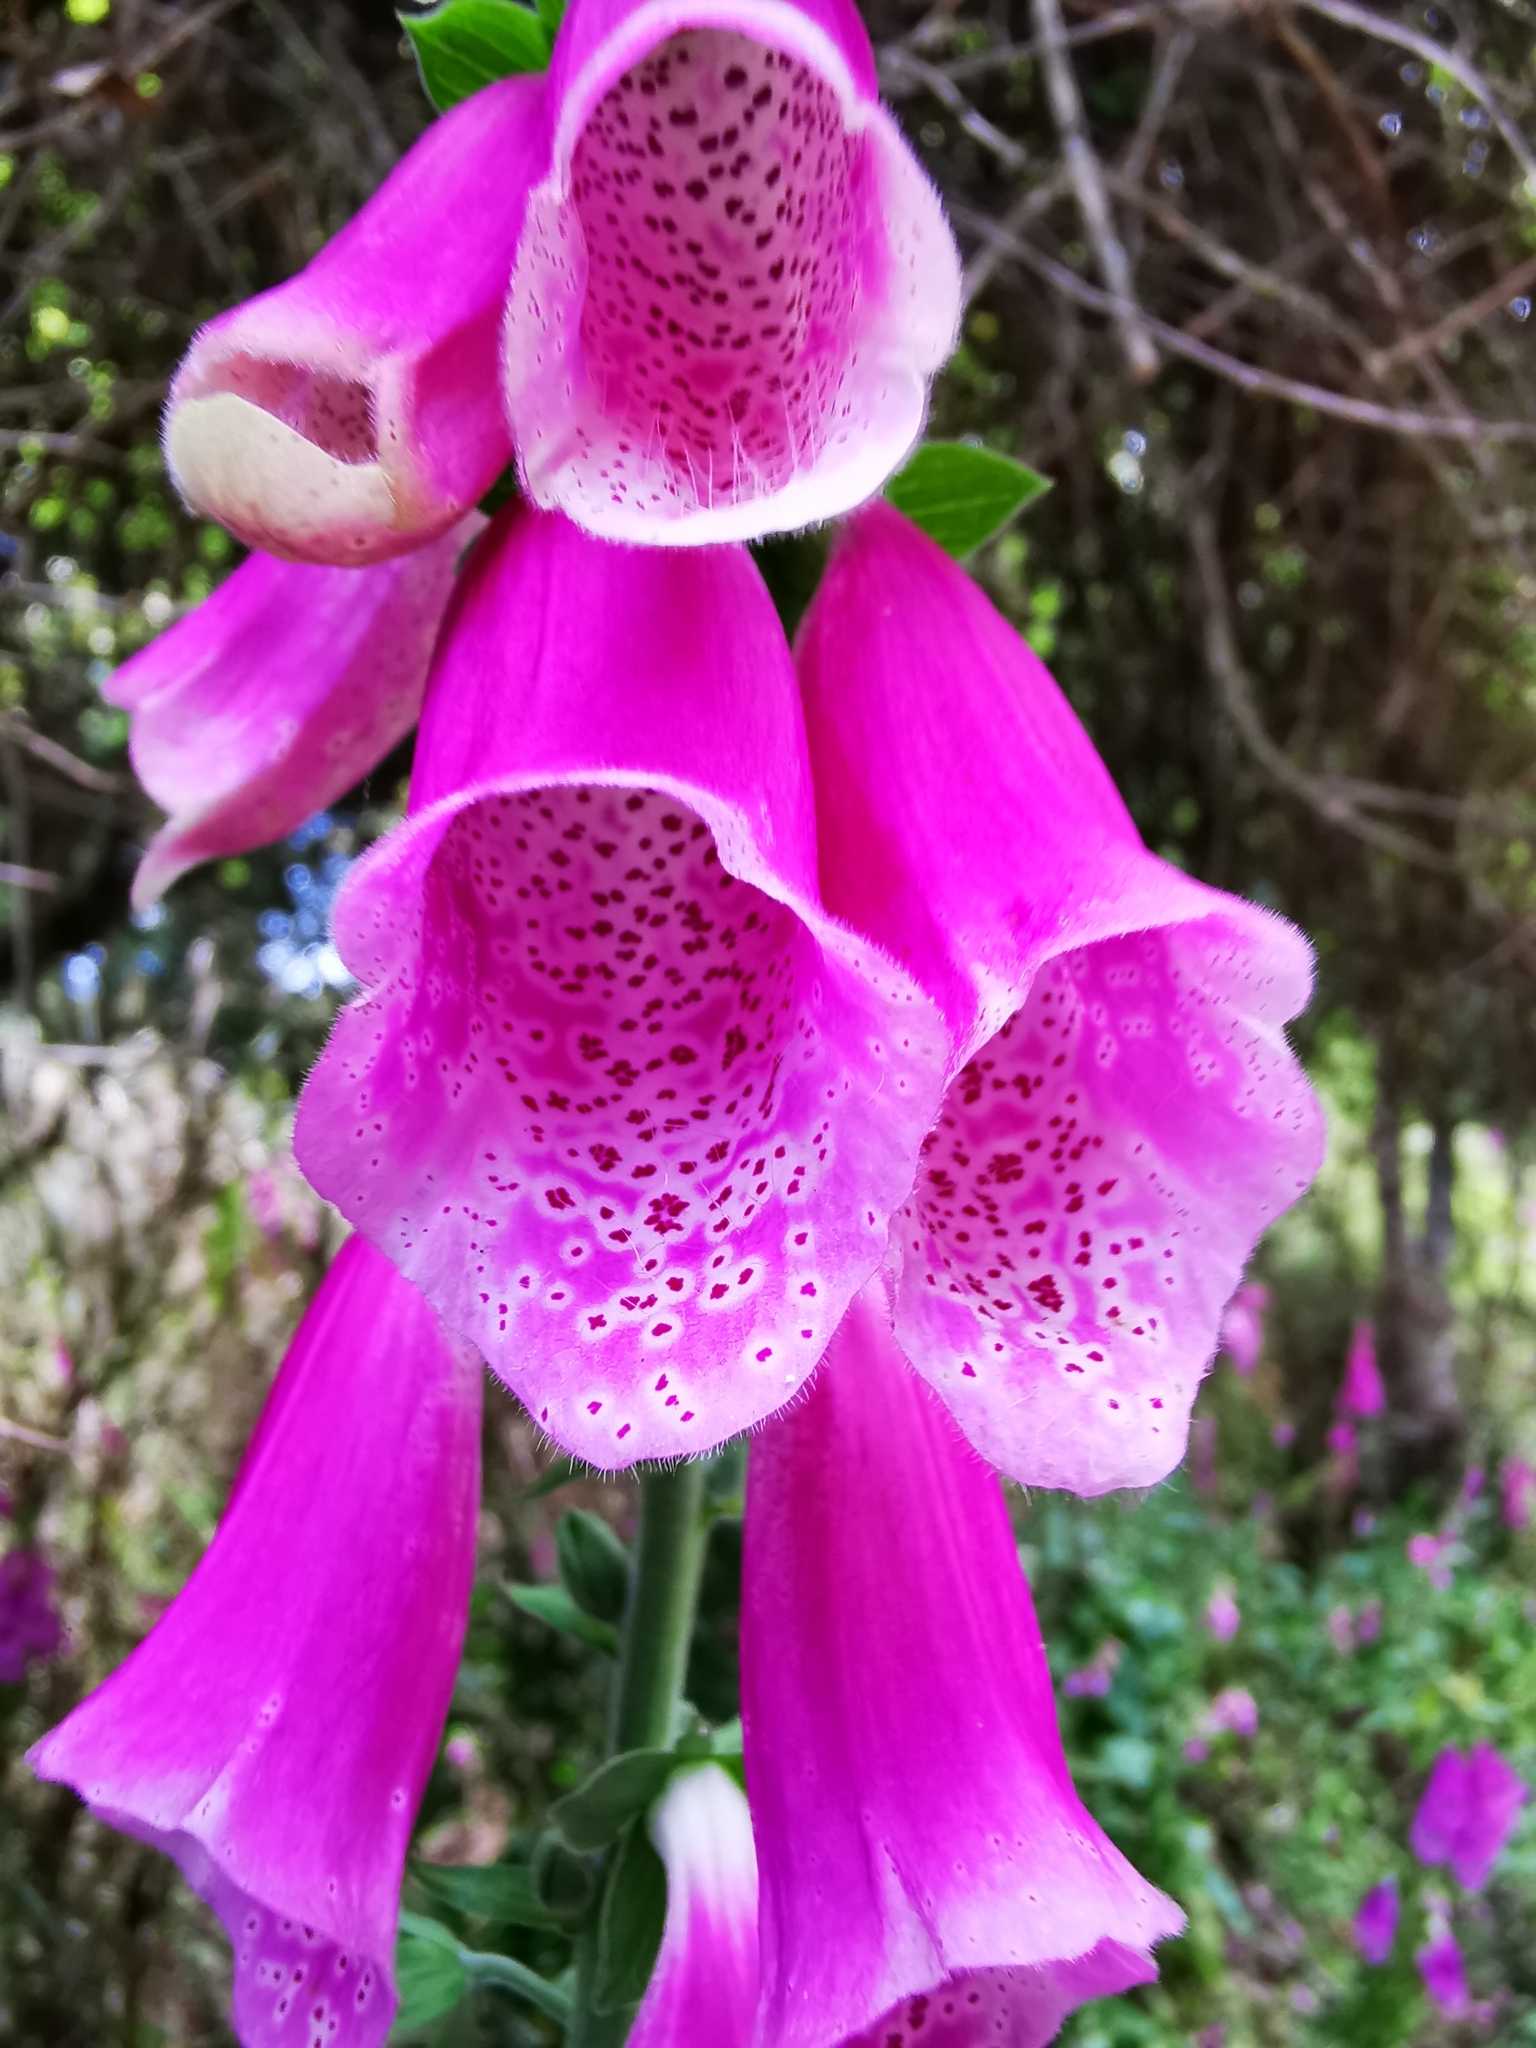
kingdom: Plantae
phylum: Tracheophyta
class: Magnoliopsida
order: Lamiales
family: Plantaginaceae
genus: Digitalis
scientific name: Digitalis purpurea
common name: Foxglove
